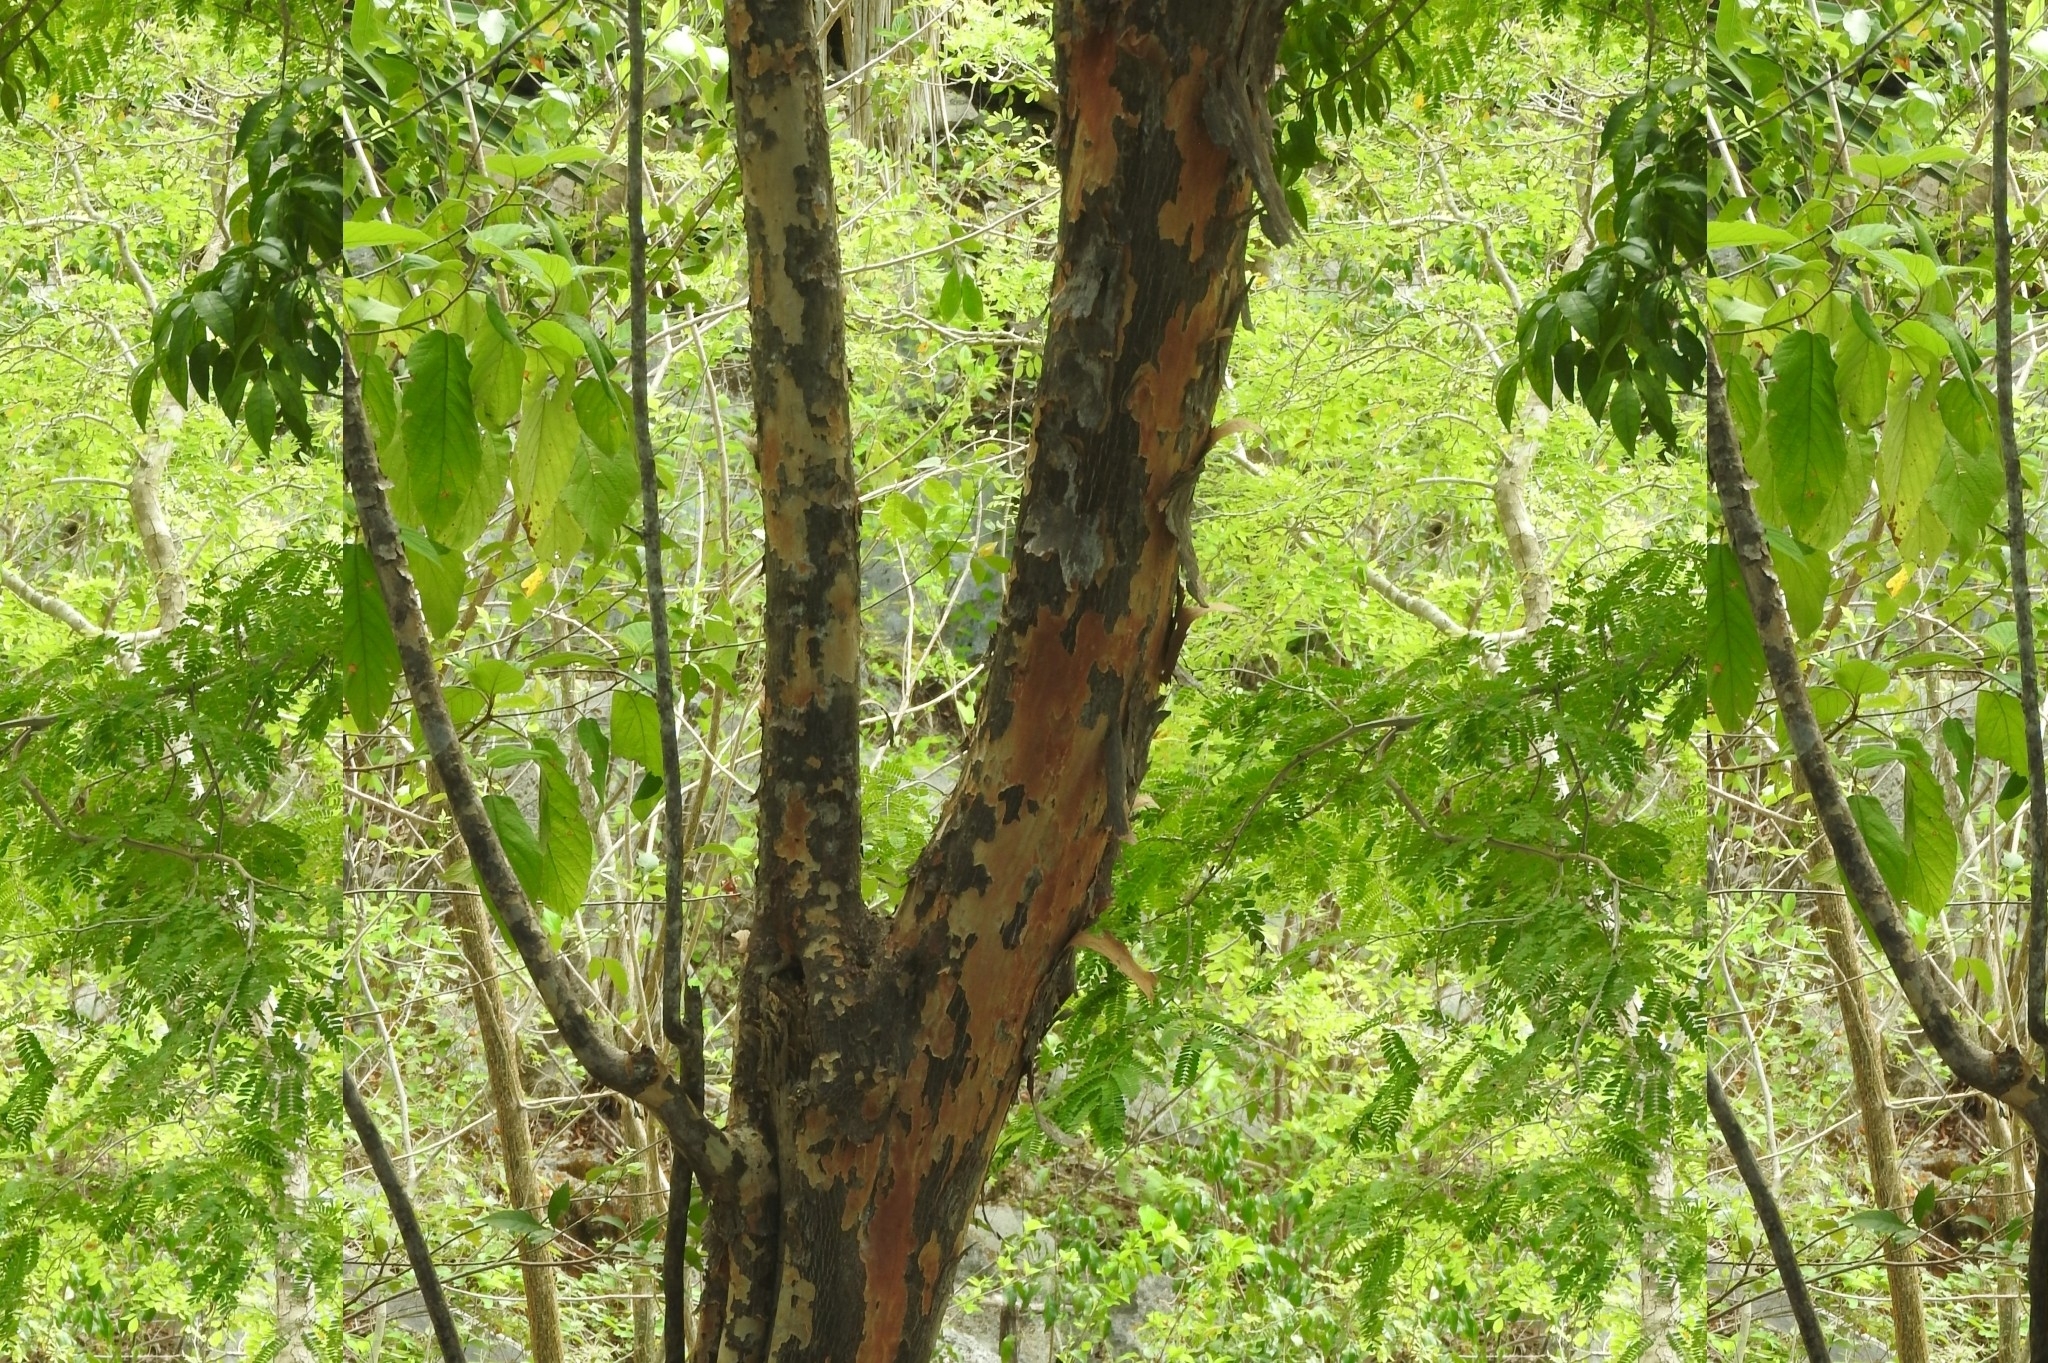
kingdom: Plantae
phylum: Tracheophyta
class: Magnoliopsida
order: Sapindales
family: Burseraceae
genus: Bursera
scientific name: Bursera simaruba
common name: Turpentine tree
